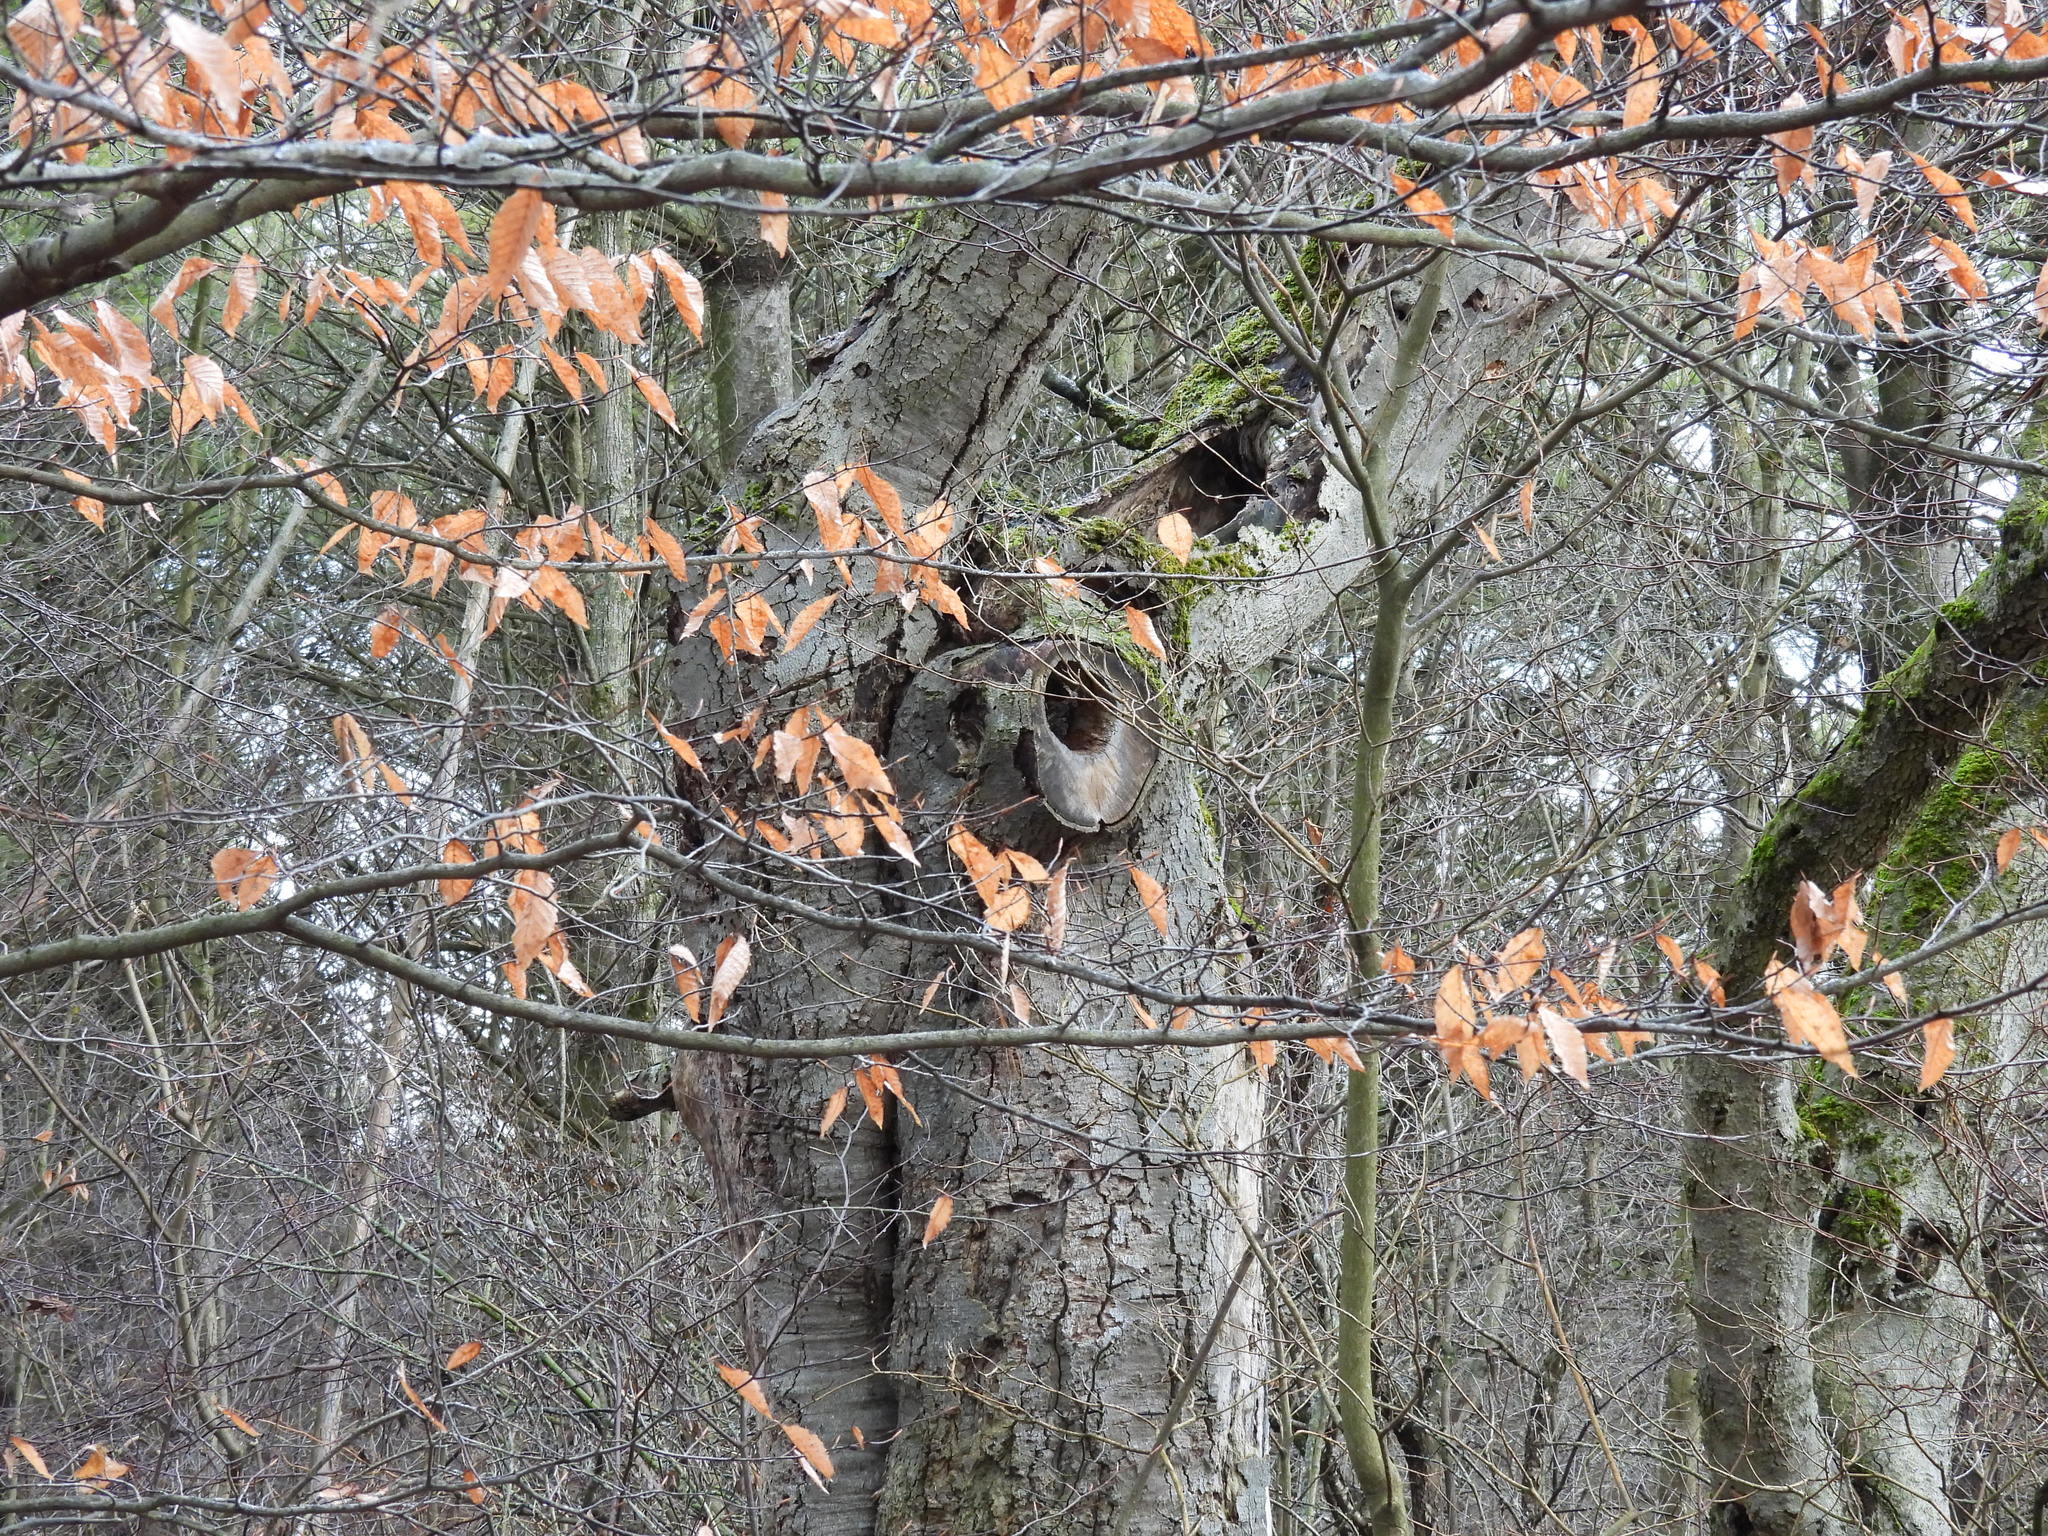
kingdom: Plantae
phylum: Tracheophyta
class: Magnoliopsida
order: Fagales
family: Fagaceae
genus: Fagus
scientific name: Fagus grandifolia
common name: American beech
